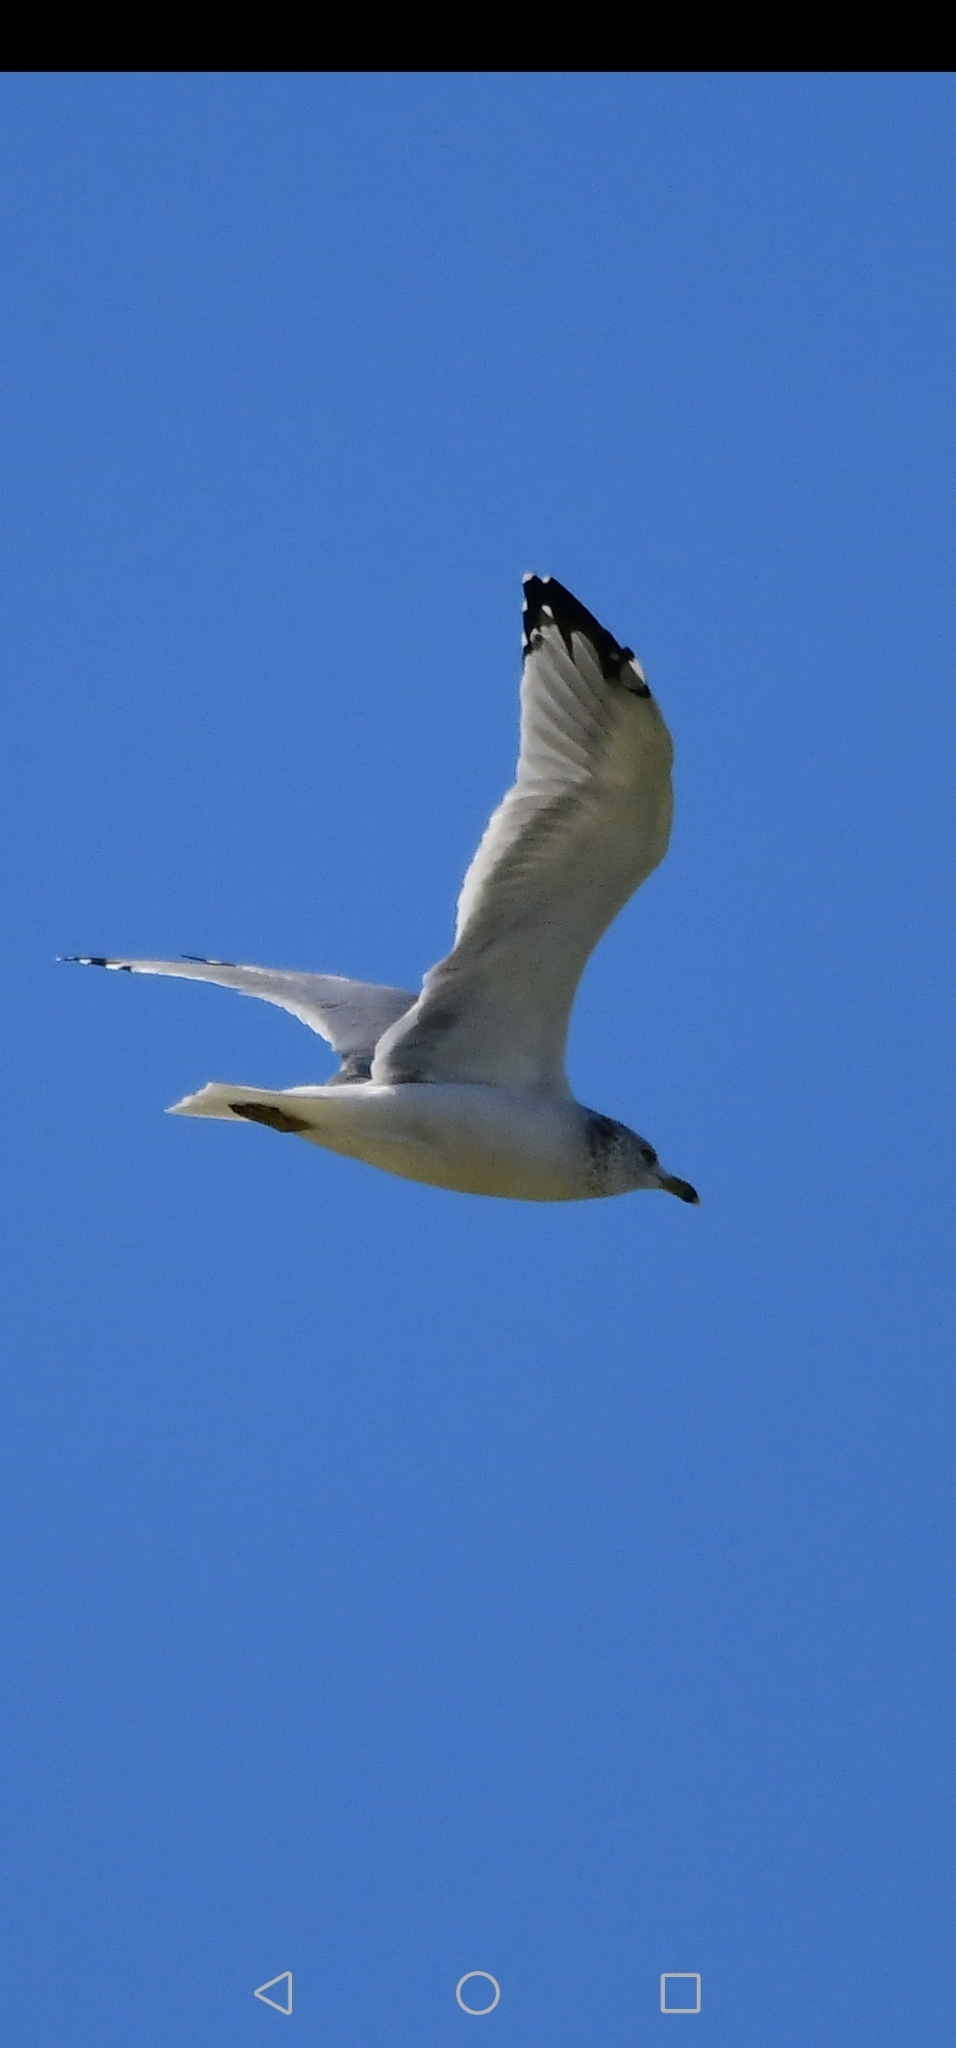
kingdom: Animalia
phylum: Chordata
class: Aves
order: Charadriiformes
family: Laridae
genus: Larus
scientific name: Larus delawarensis
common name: Ring-billed gull
